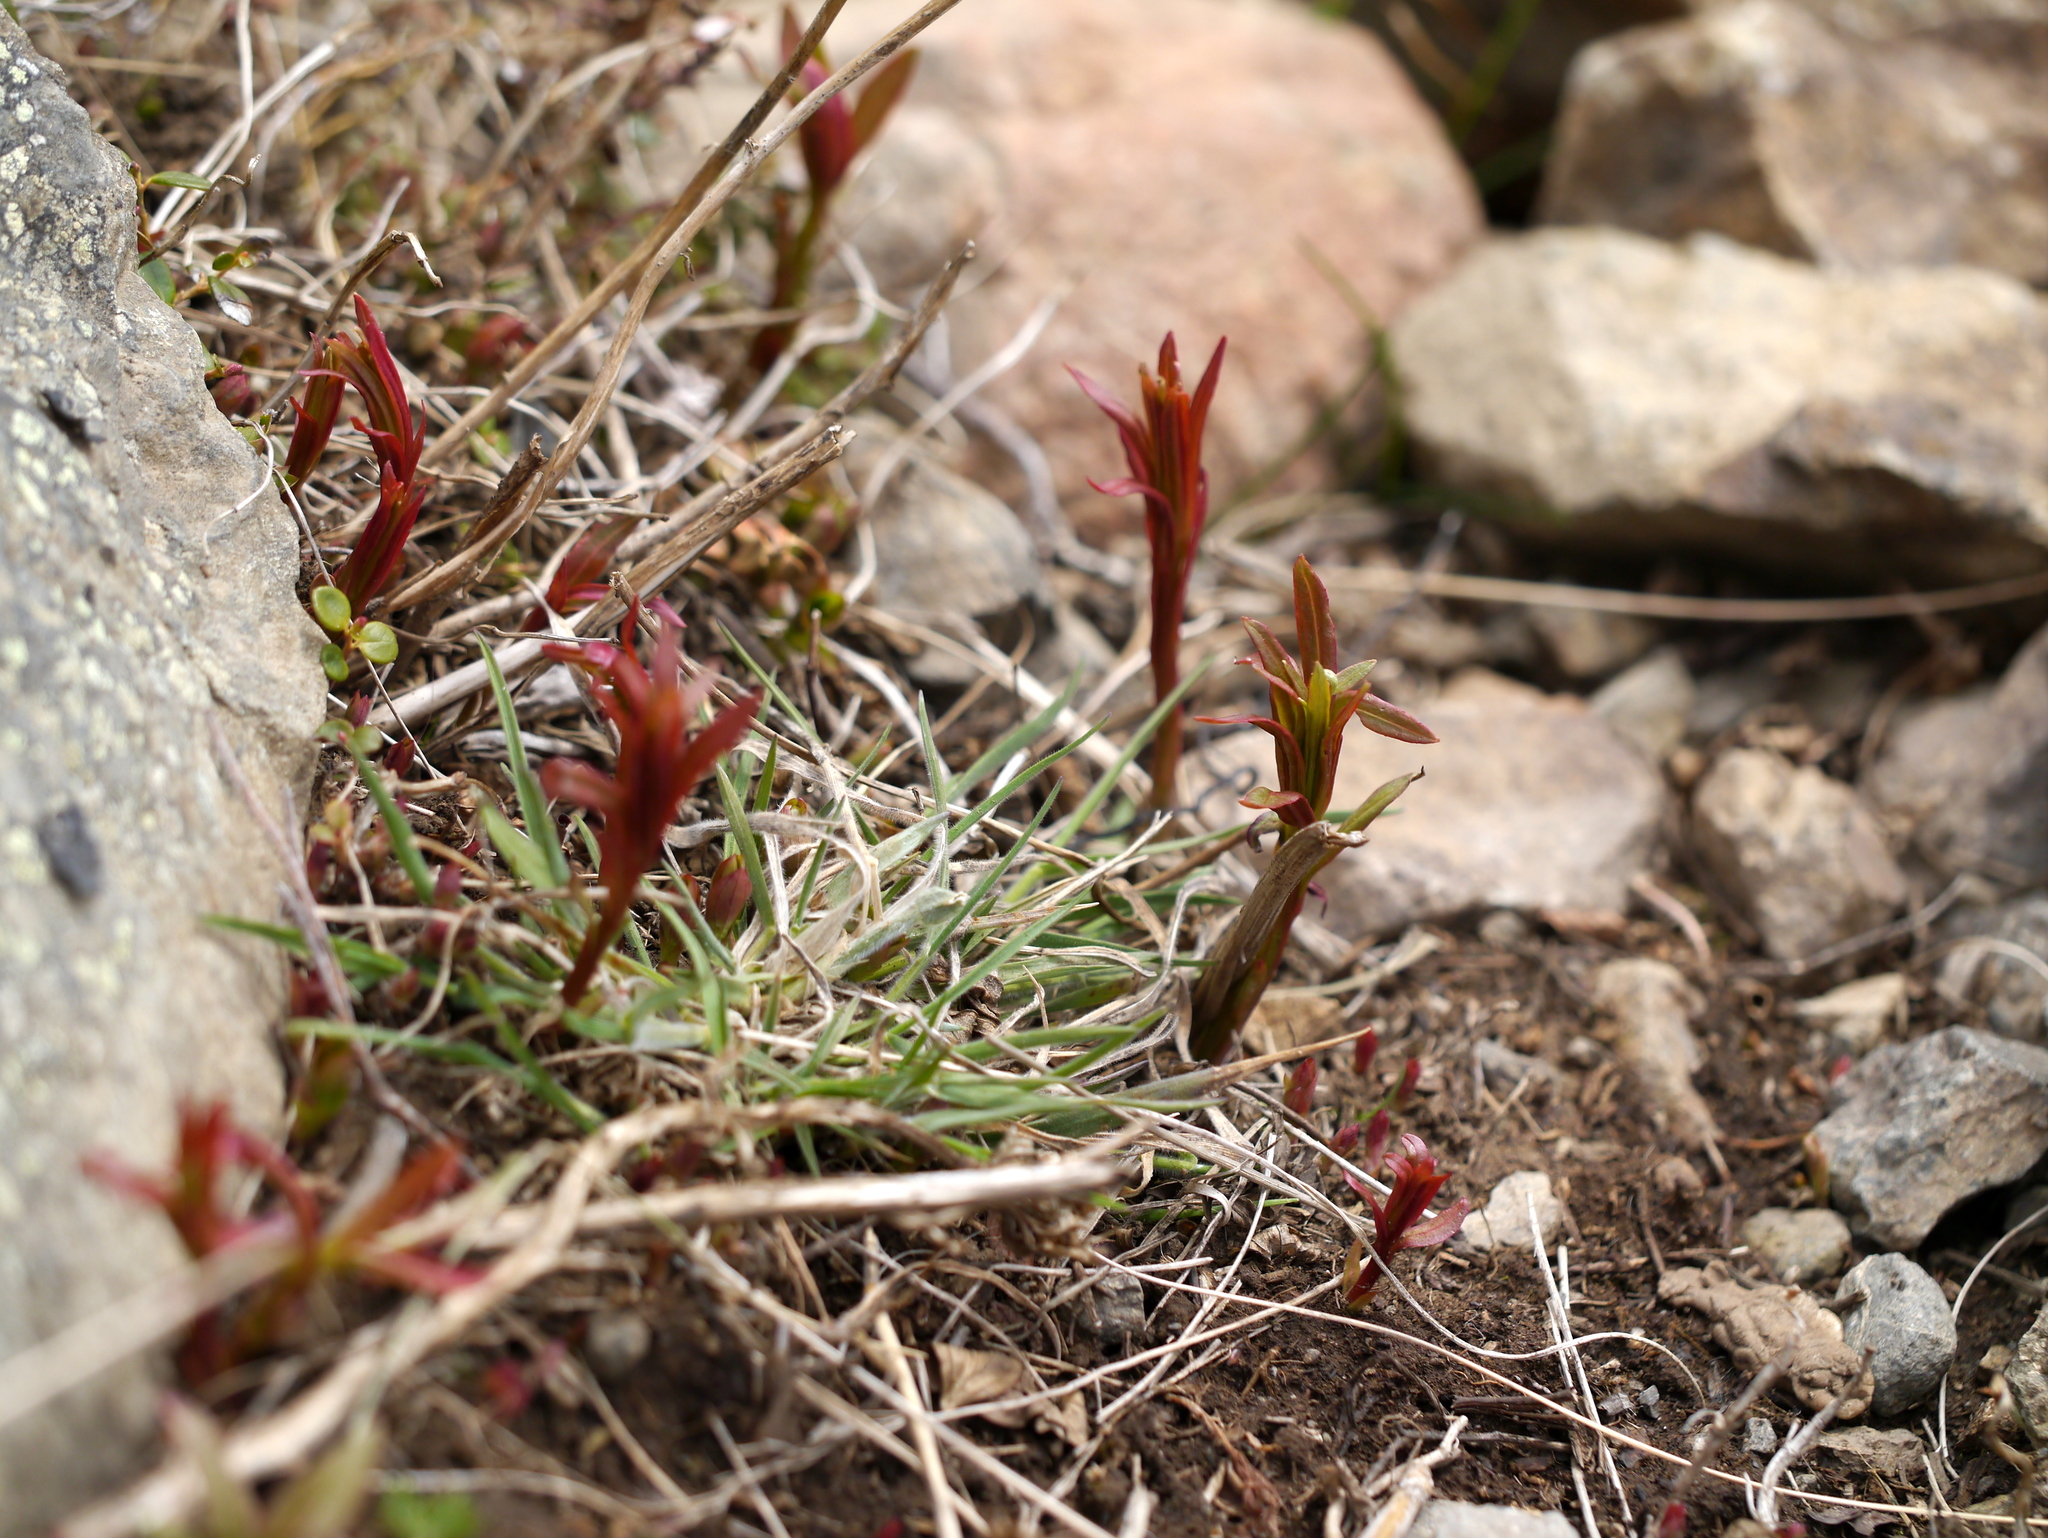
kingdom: Plantae
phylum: Tracheophyta
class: Magnoliopsida
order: Myrtales
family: Onagraceae
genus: Chamaenerion
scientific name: Chamaenerion angustifolium
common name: Fireweed
